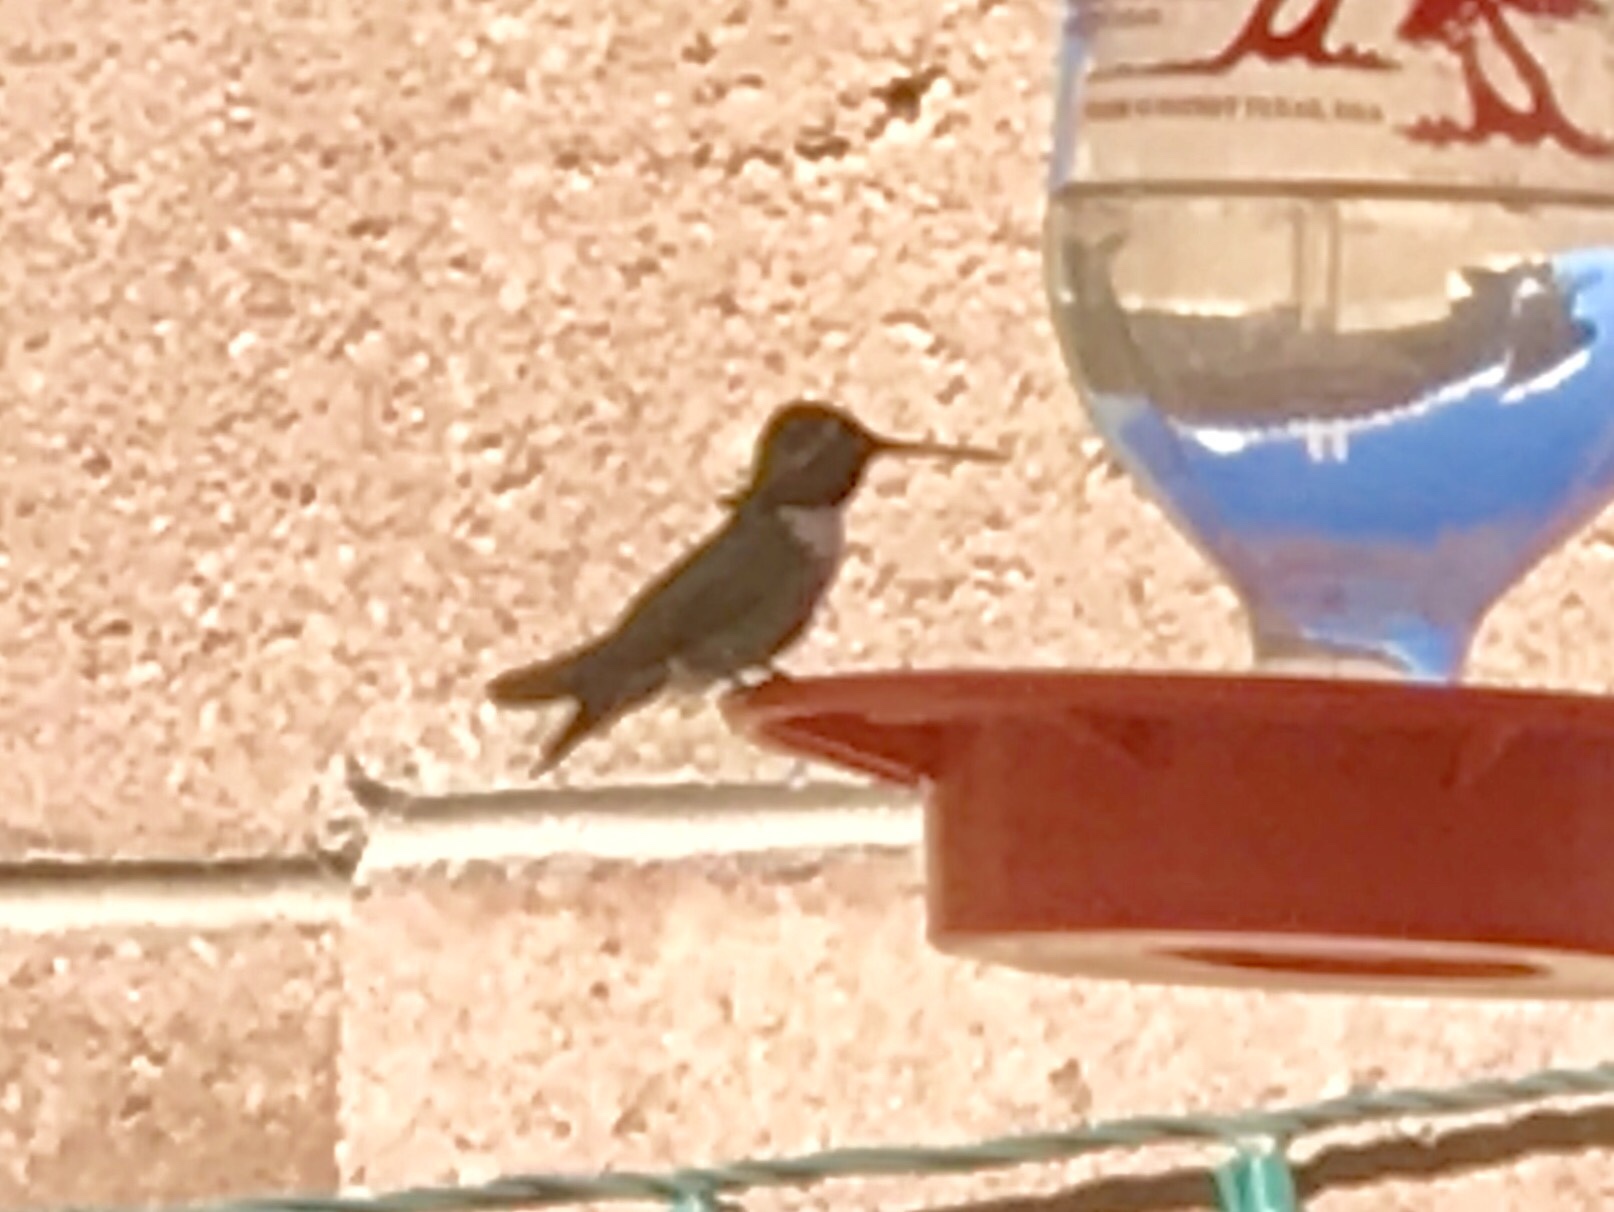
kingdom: Animalia
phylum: Chordata
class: Aves
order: Apodiformes
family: Trochilidae
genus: Calypte
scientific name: Calypte costae
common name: Costa's hummingbird
